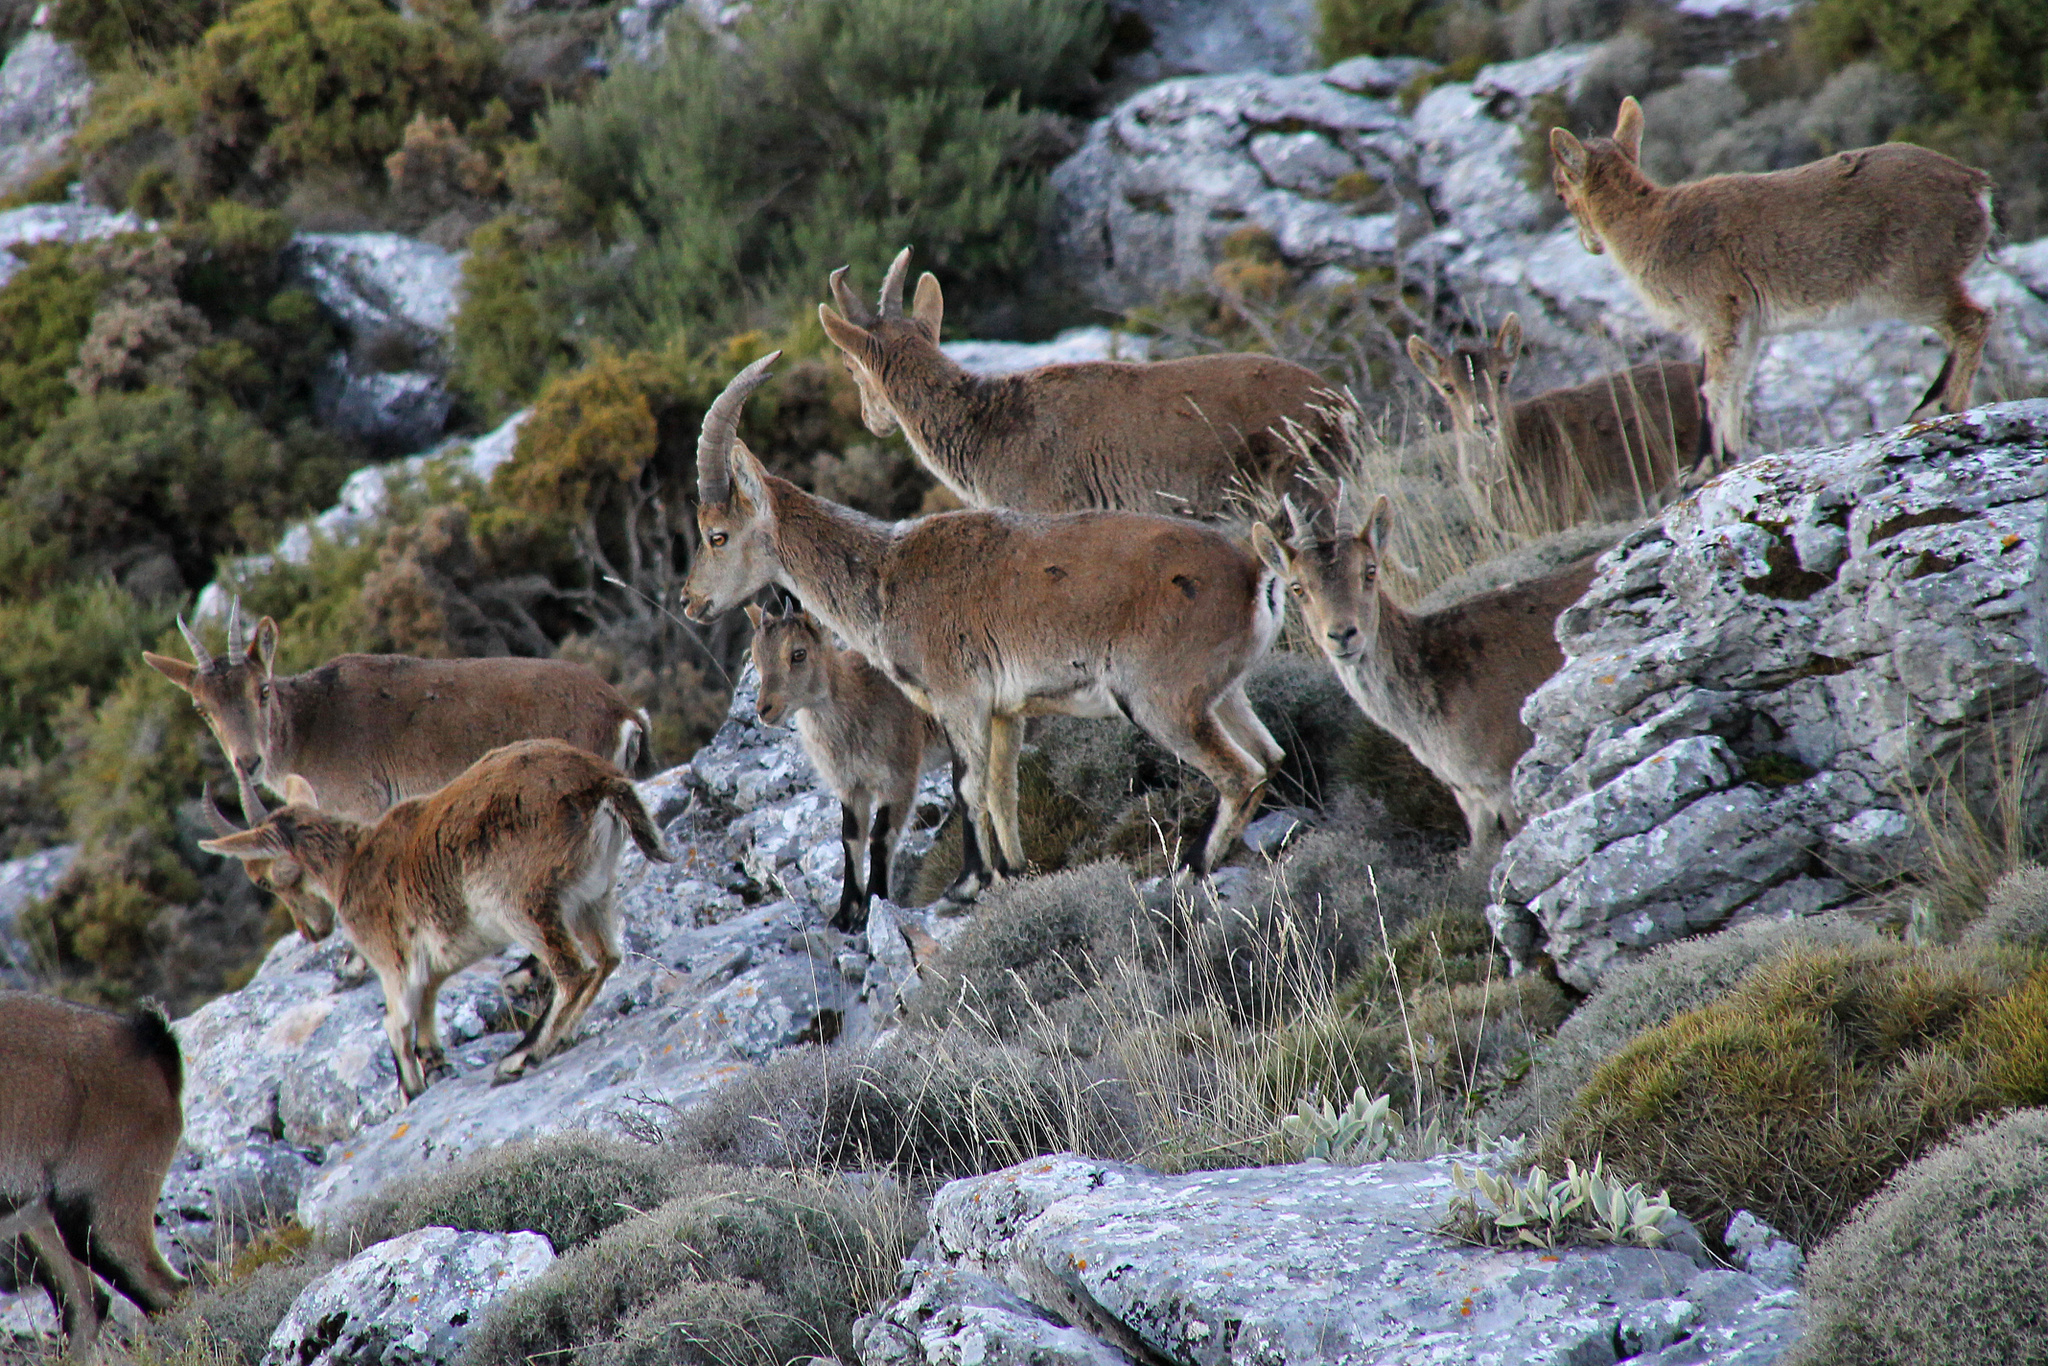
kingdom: Animalia
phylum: Chordata
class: Mammalia
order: Artiodactyla
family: Bovidae
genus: Capra
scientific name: Capra pyrenaica
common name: Spanish ibex
